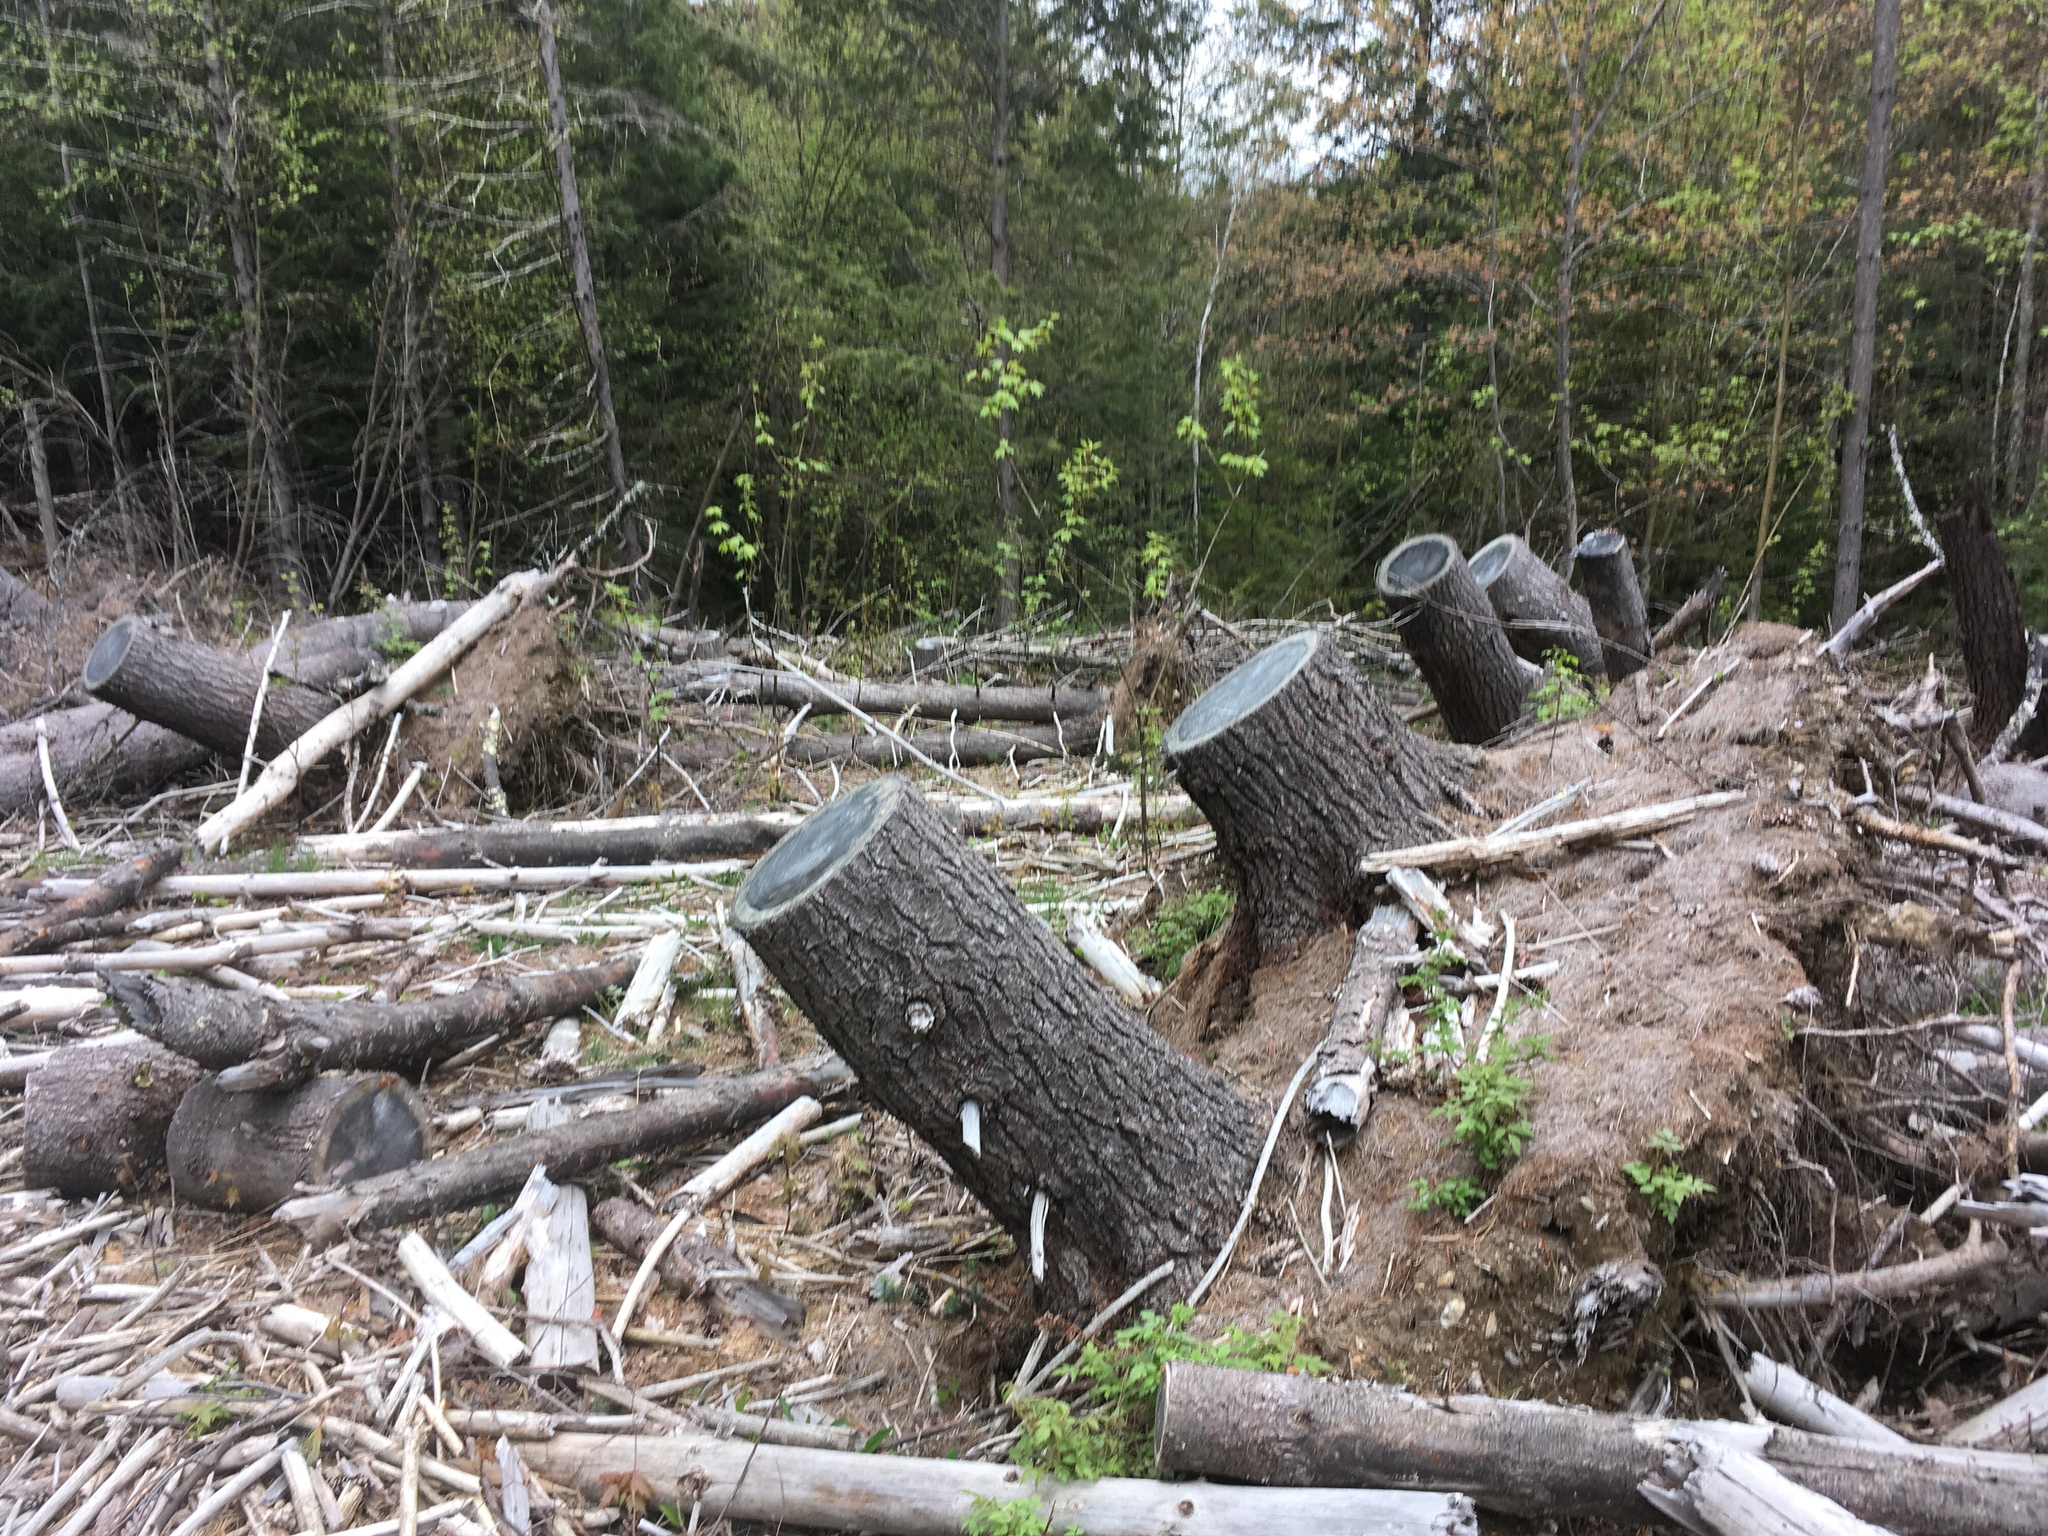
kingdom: Plantae
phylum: Tracheophyta
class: Pinopsida
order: Pinales
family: Pinaceae
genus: Pinus
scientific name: Pinus strobus
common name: Weymouth pine
